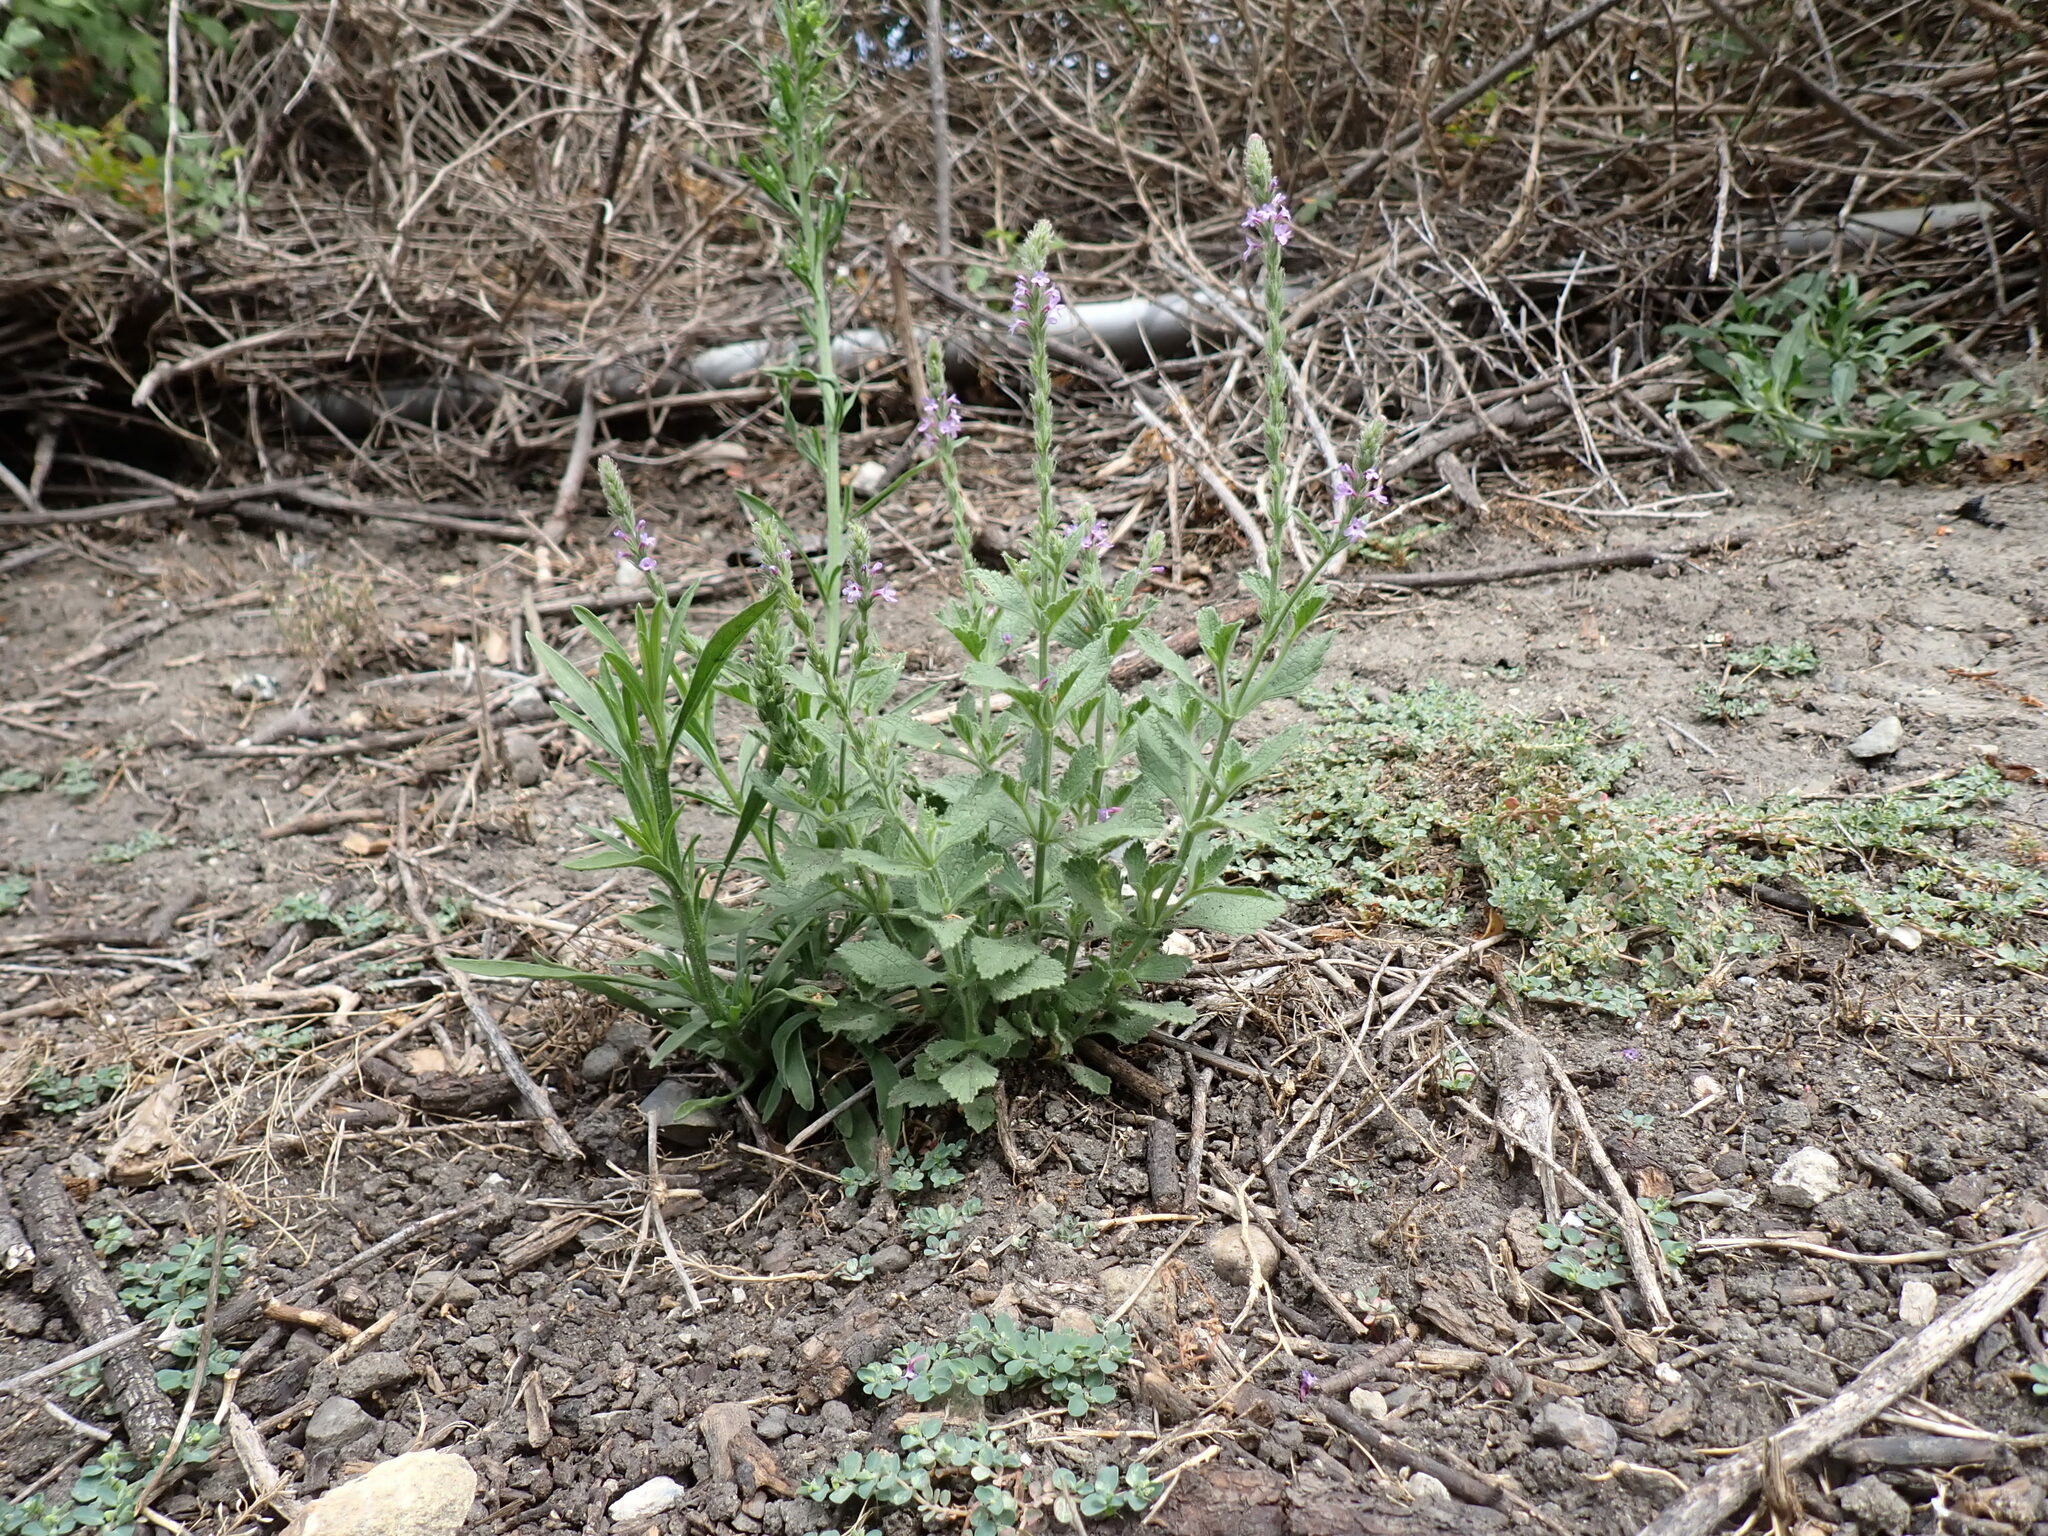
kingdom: Plantae
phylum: Tracheophyta
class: Magnoliopsida
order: Lamiales
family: Verbenaceae
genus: Verbena
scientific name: Verbena lasiostachys
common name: Vervain
